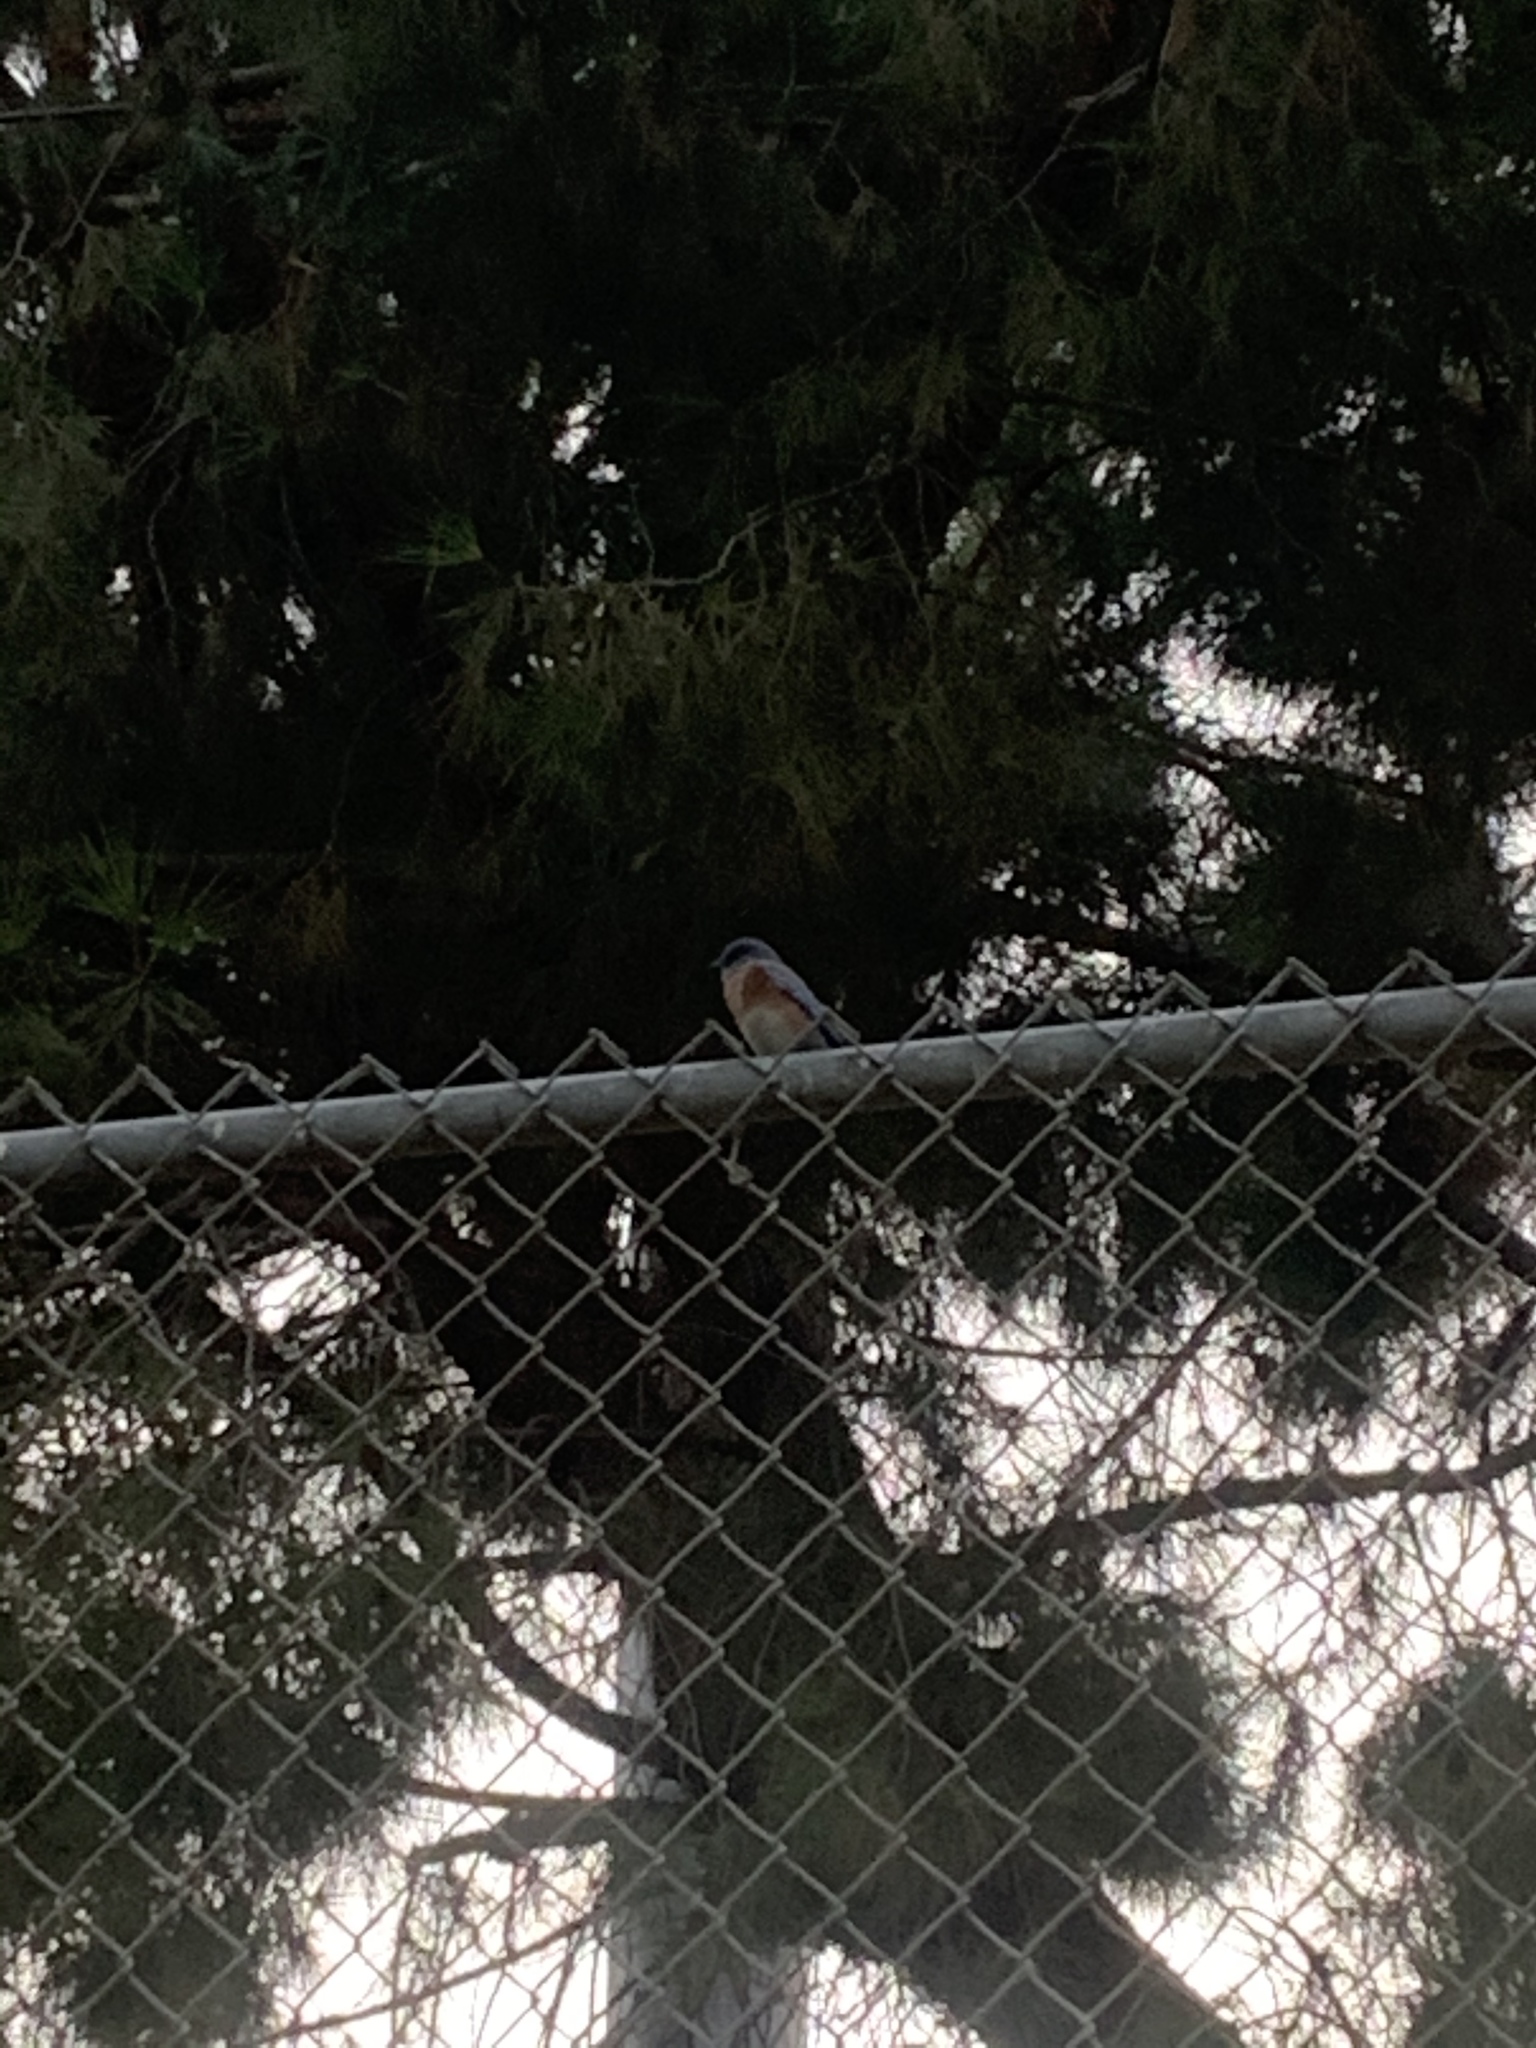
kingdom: Animalia
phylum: Chordata
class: Aves
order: Passeriformes
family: Turdidae
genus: Sialia
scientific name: Sialia mexicana
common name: Western bluebird
